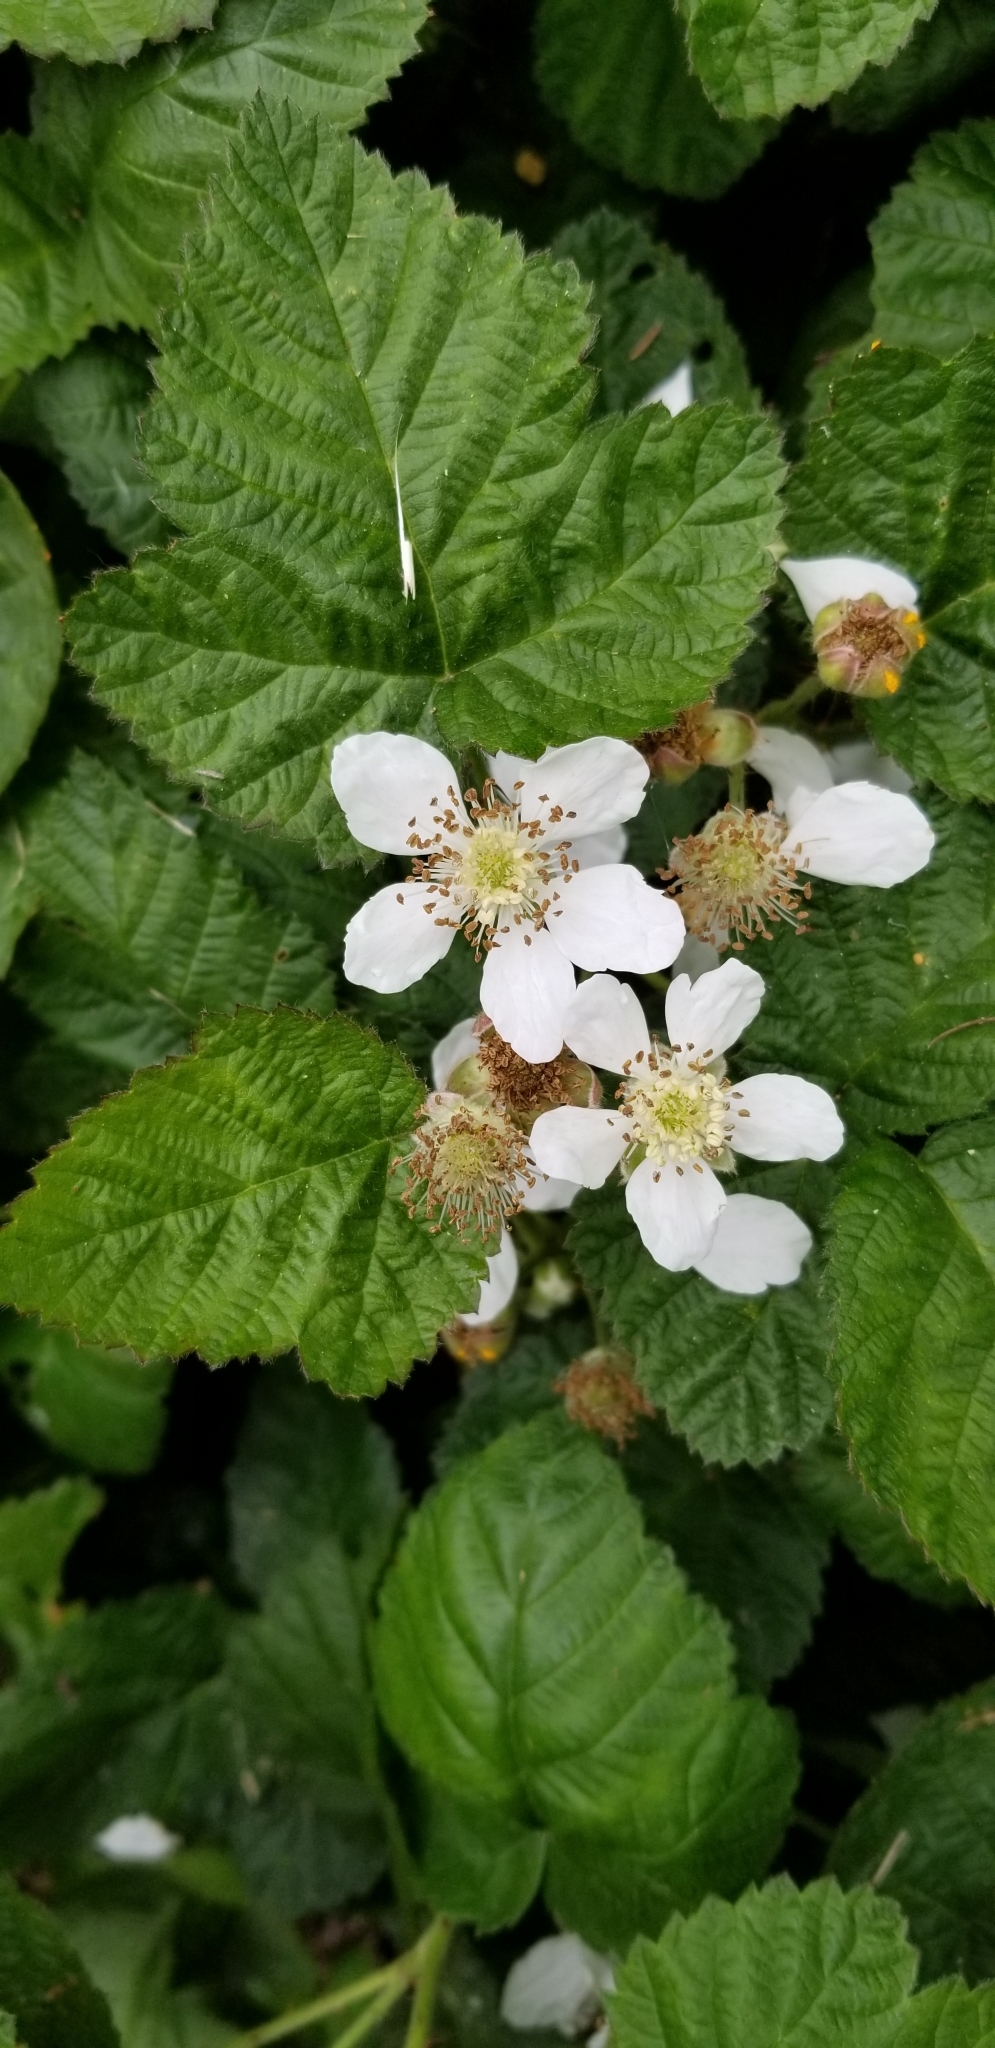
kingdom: Plantae
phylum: Tracheophyta
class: Magnoliopsida
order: Rosales
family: Rosaceae
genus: Rubus
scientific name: Rubus ursinus
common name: Pacific blackberry
